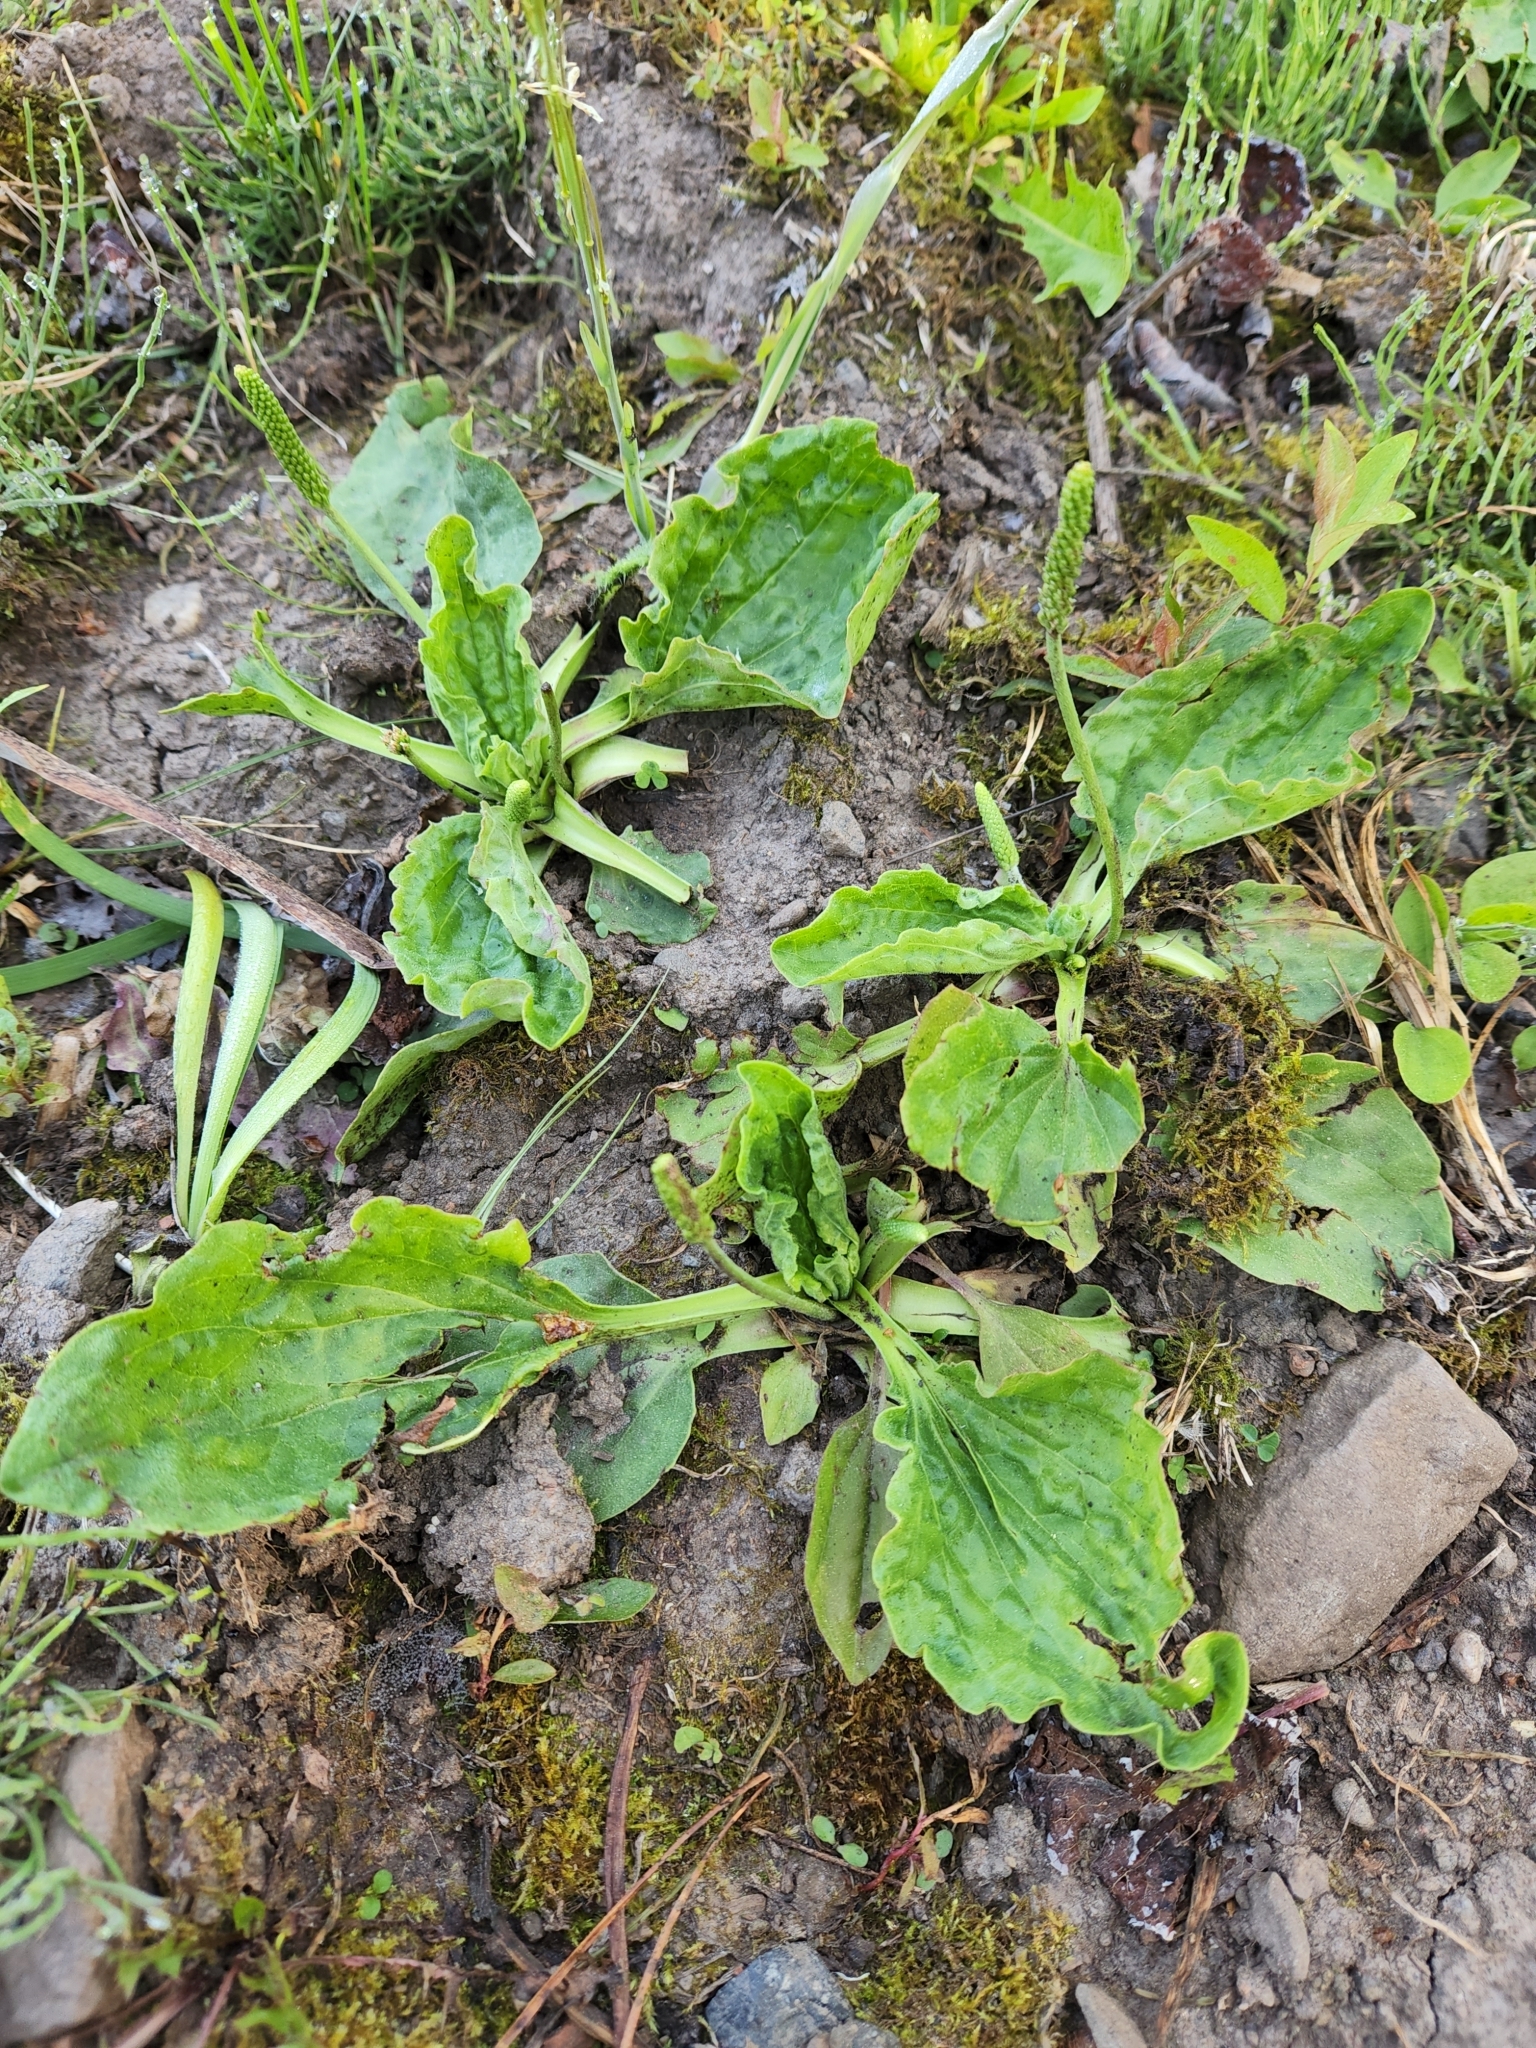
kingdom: Plantae
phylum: Tracheophyta
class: Magnoliopsida
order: Lamiales
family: Plantaginaceae
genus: Plantago
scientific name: Plantago major
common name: Common plantain
